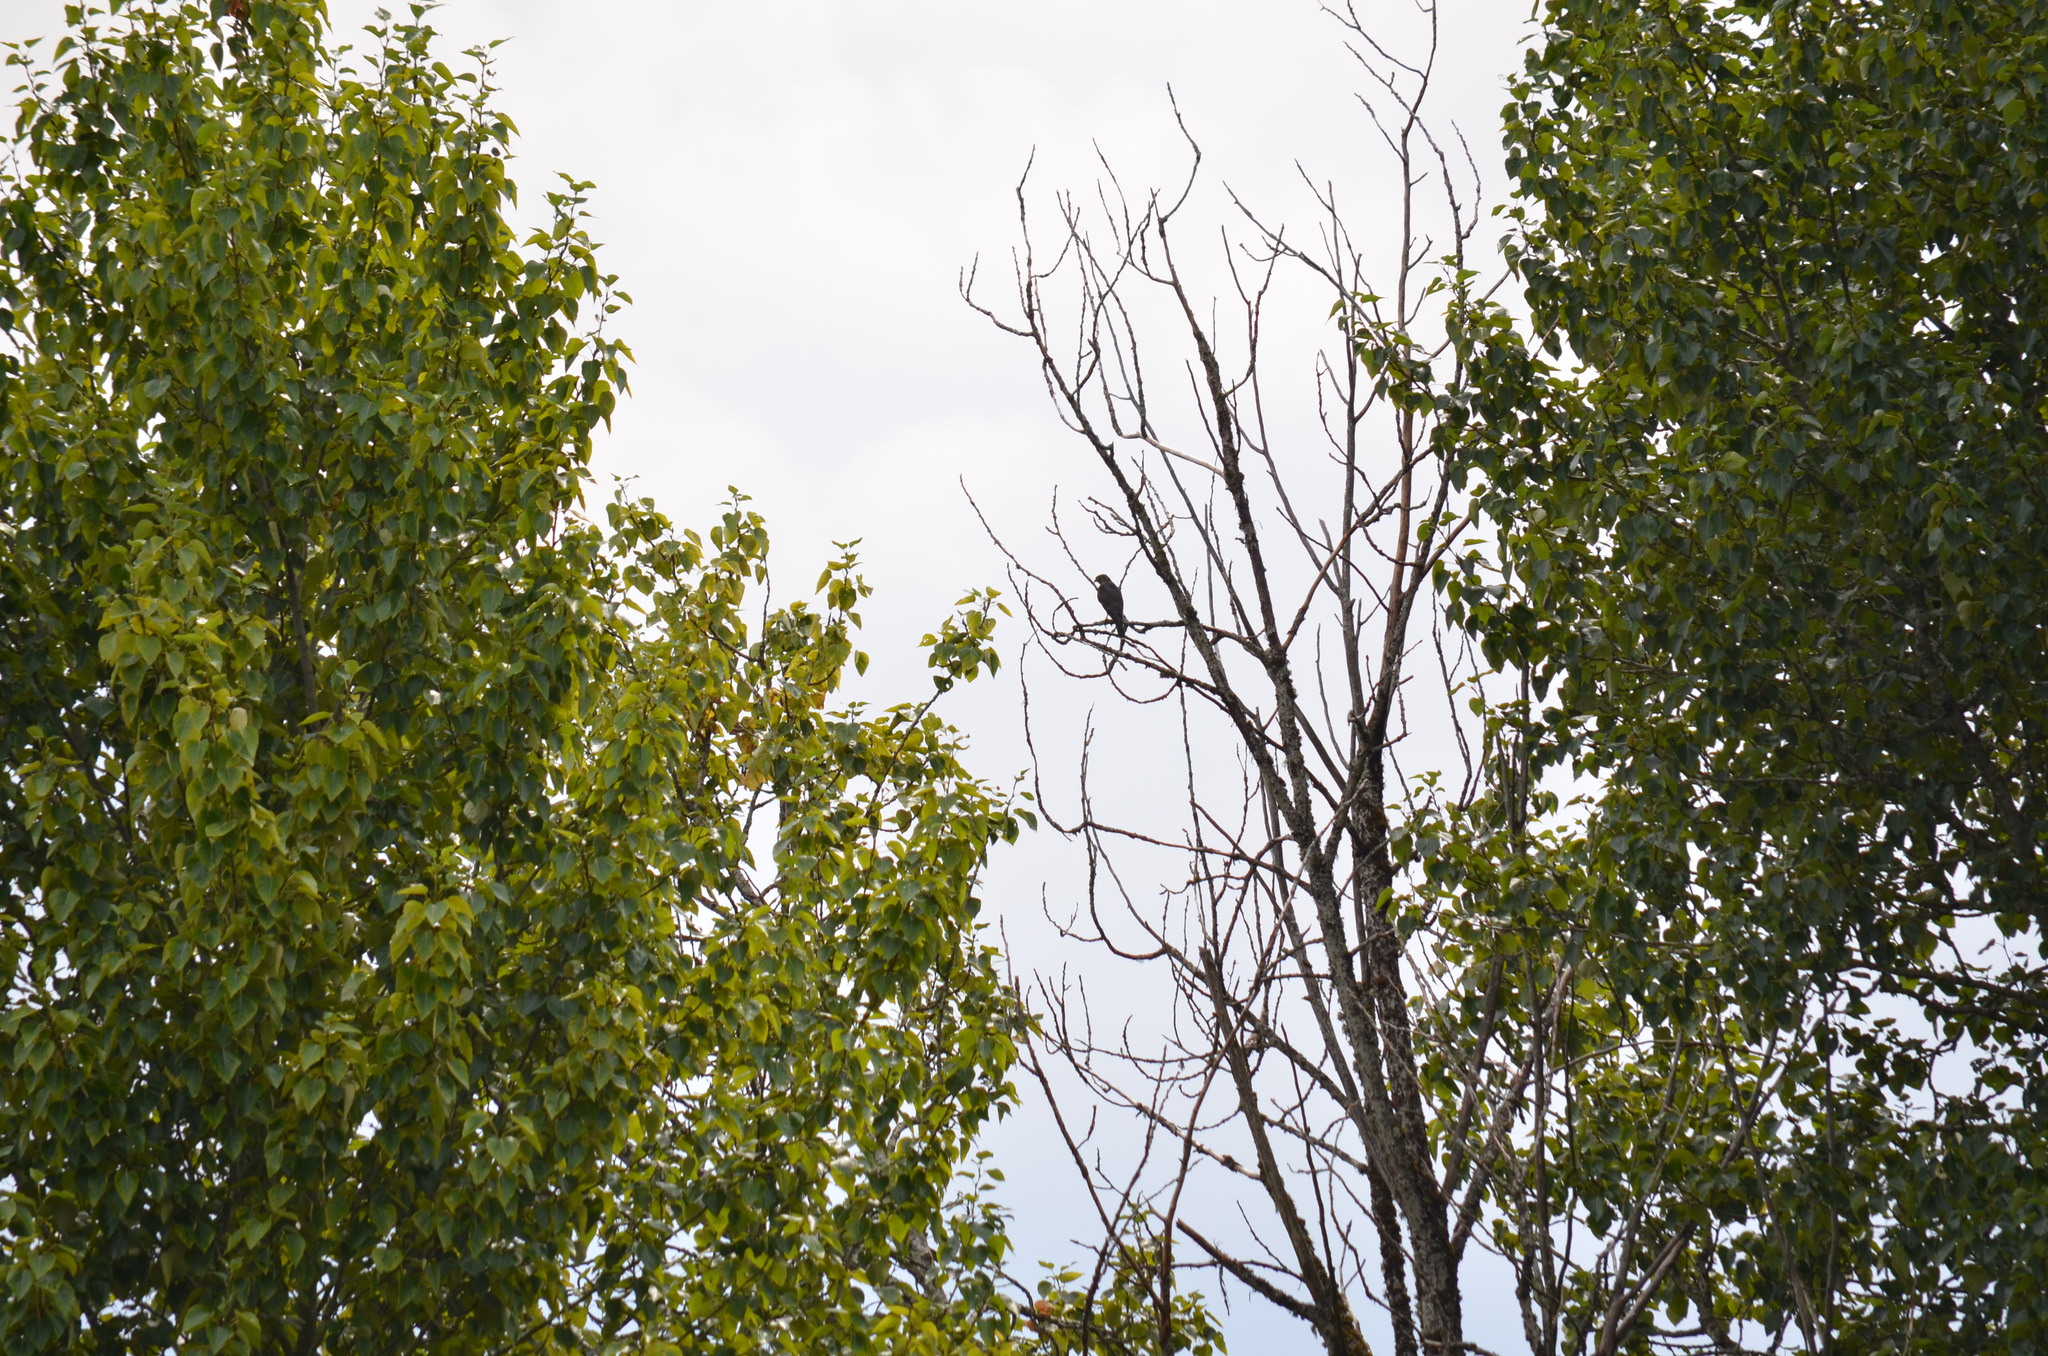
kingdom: Animalia
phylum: Chordata
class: Aves
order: Falconiformes
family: Falconidae
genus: Falco
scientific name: Falco columbarius
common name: Merlin
